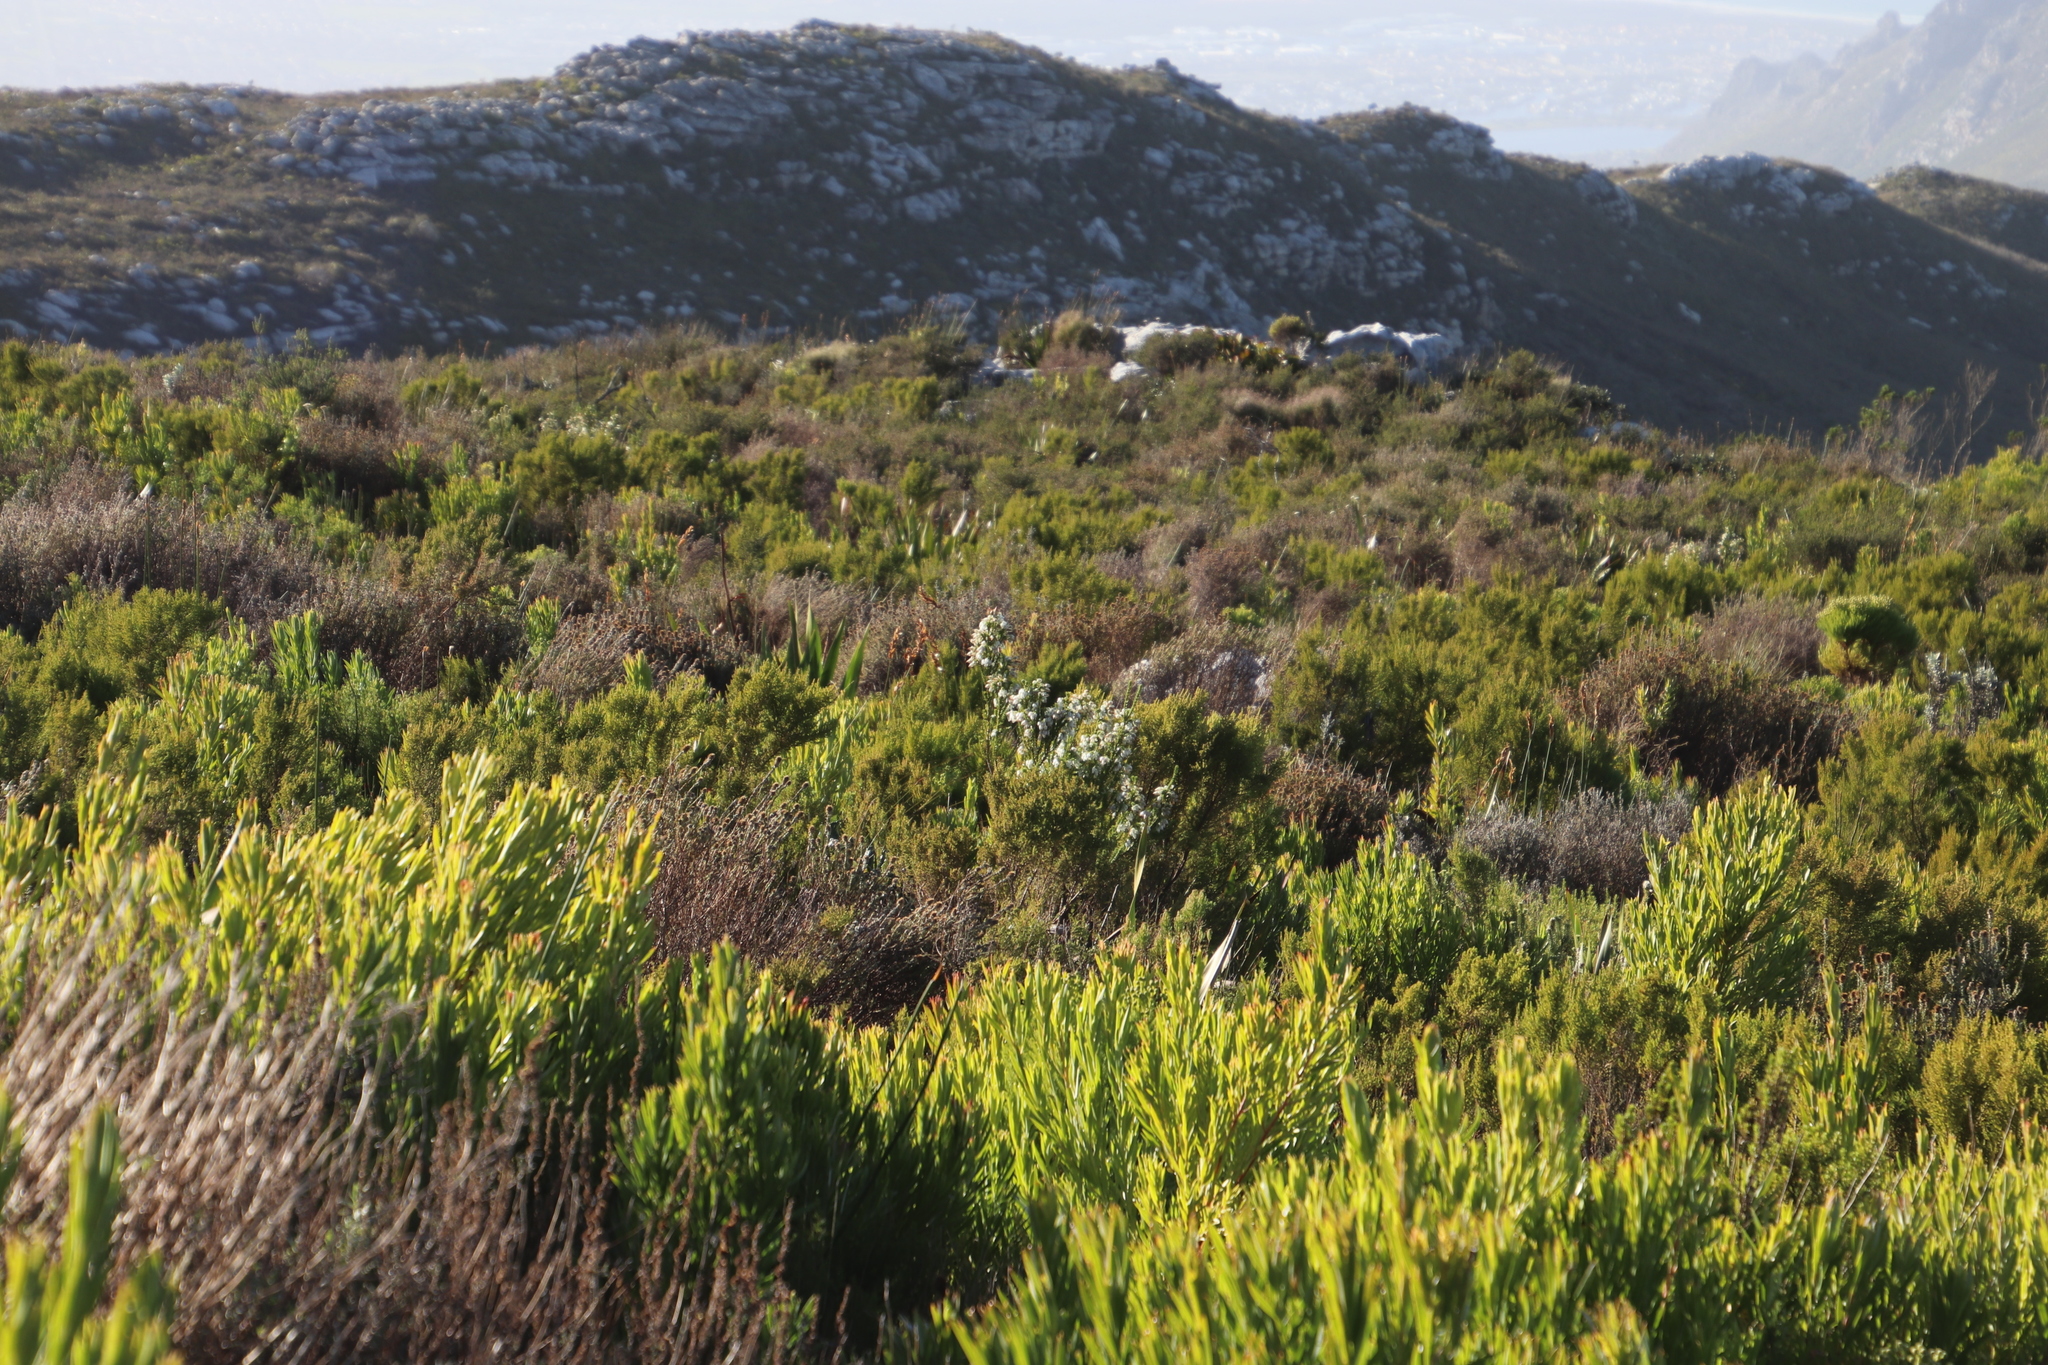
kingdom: Plantae
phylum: Tracheophyta
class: Magnoliopsida
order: Ericales
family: Ericaceae
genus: Erica
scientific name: Erica physodes
